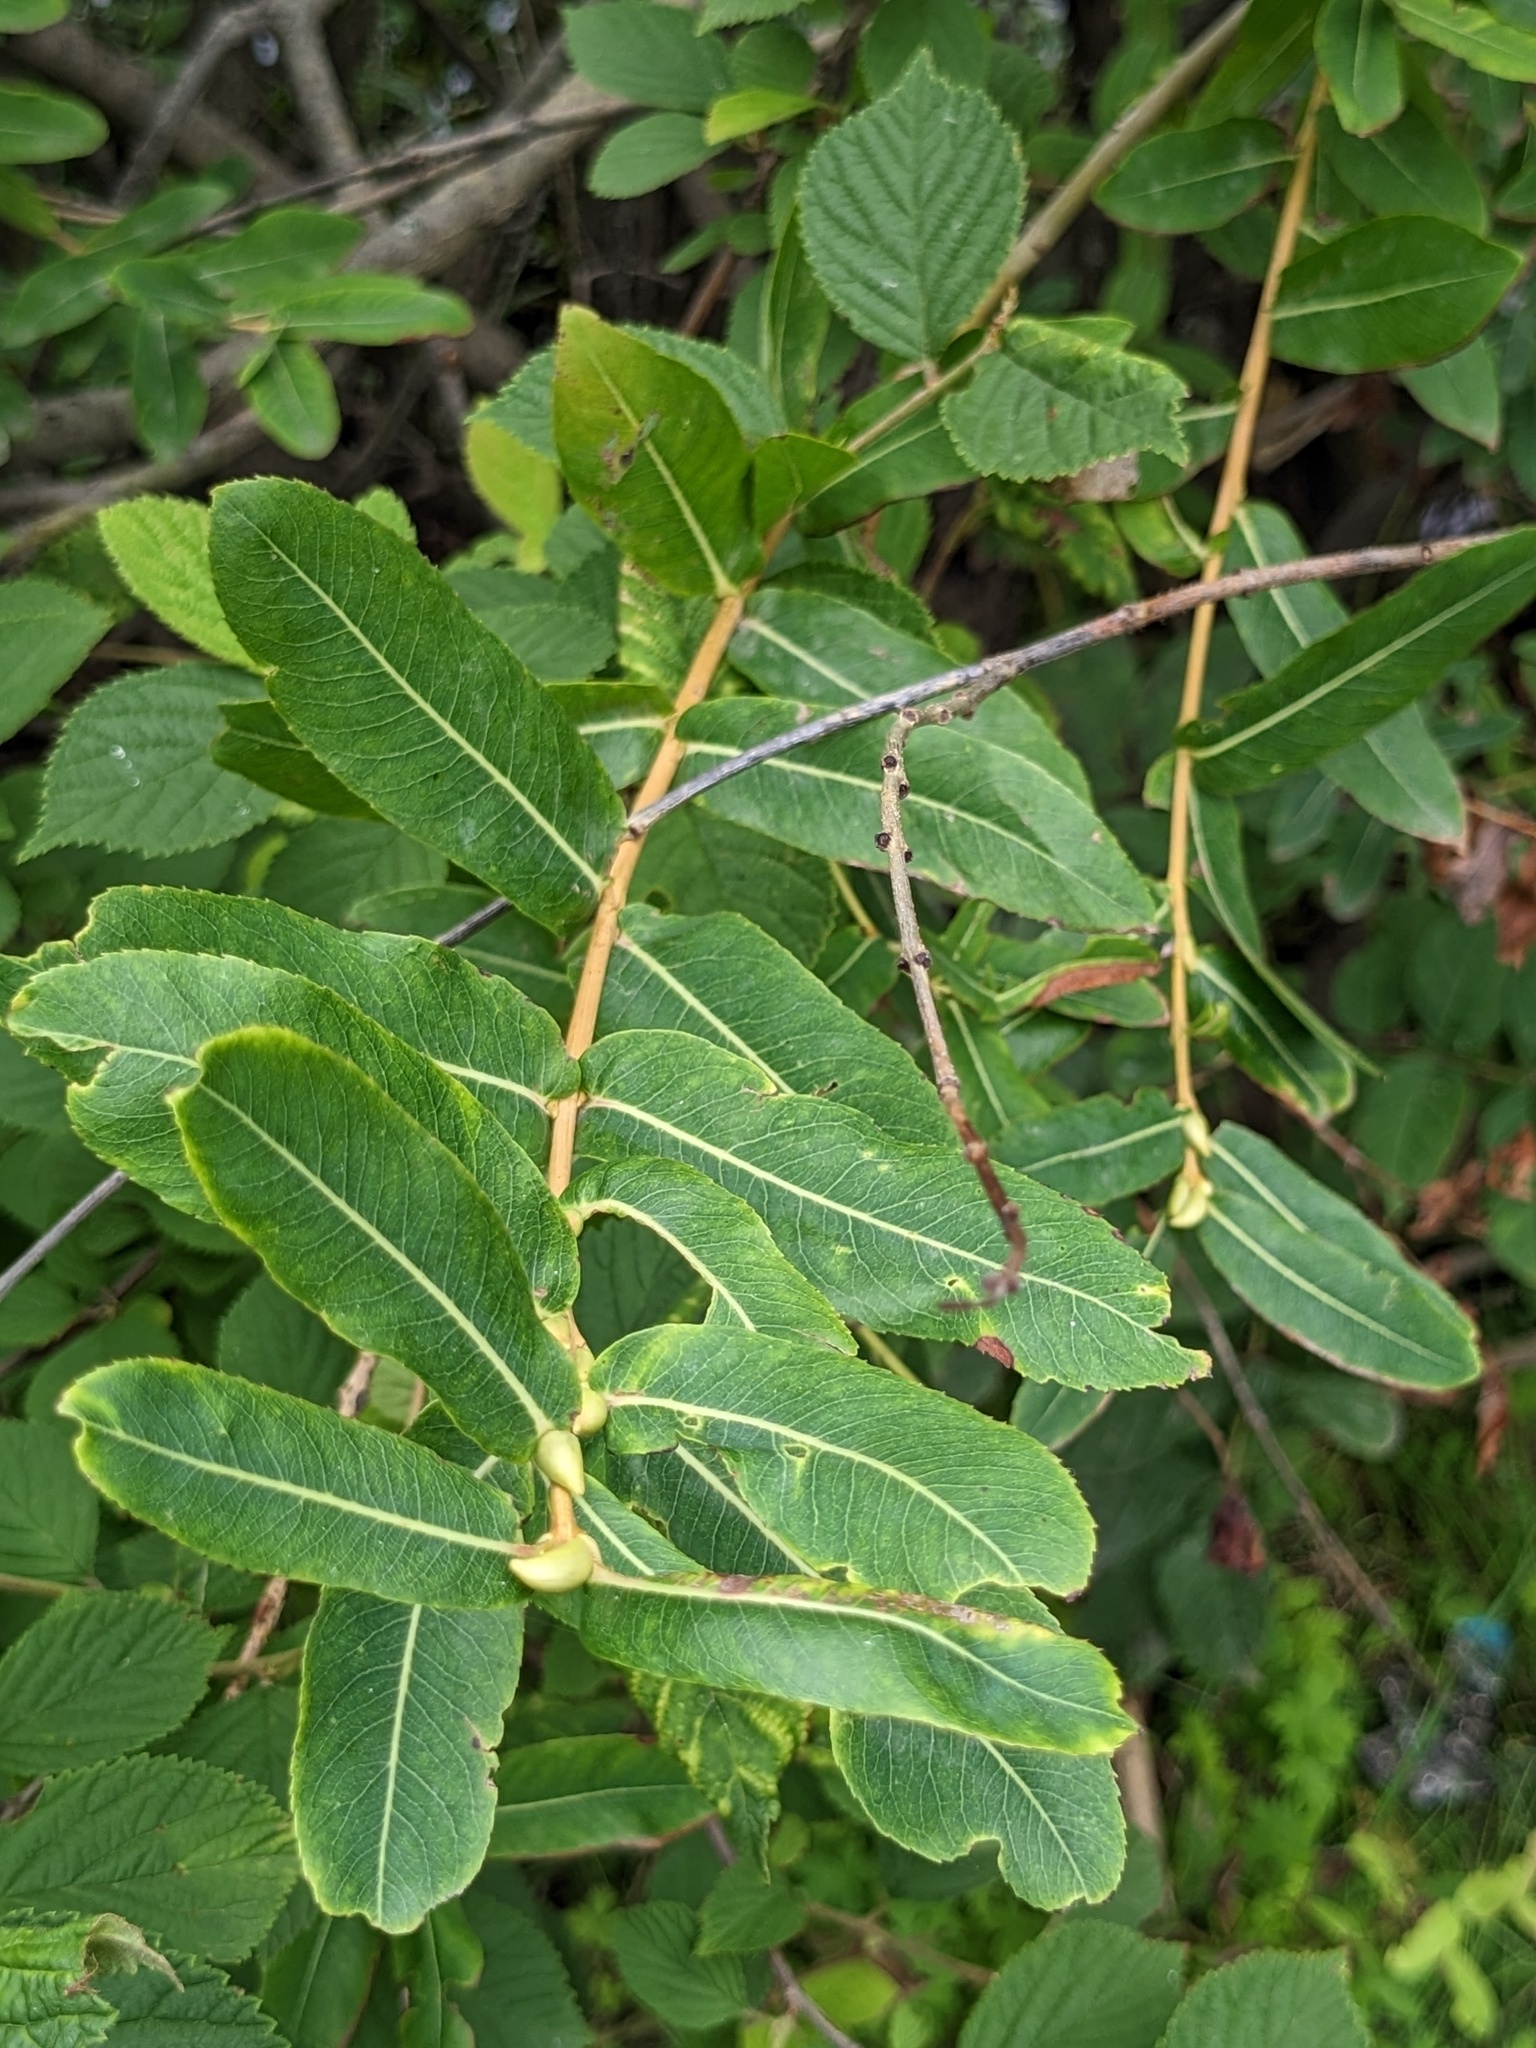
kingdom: Plantae
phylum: Tracheophyta
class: Magnoliopsida
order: Malpighiales
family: Salicaceae
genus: Salix
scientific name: Salix integra
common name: Dappled willow
